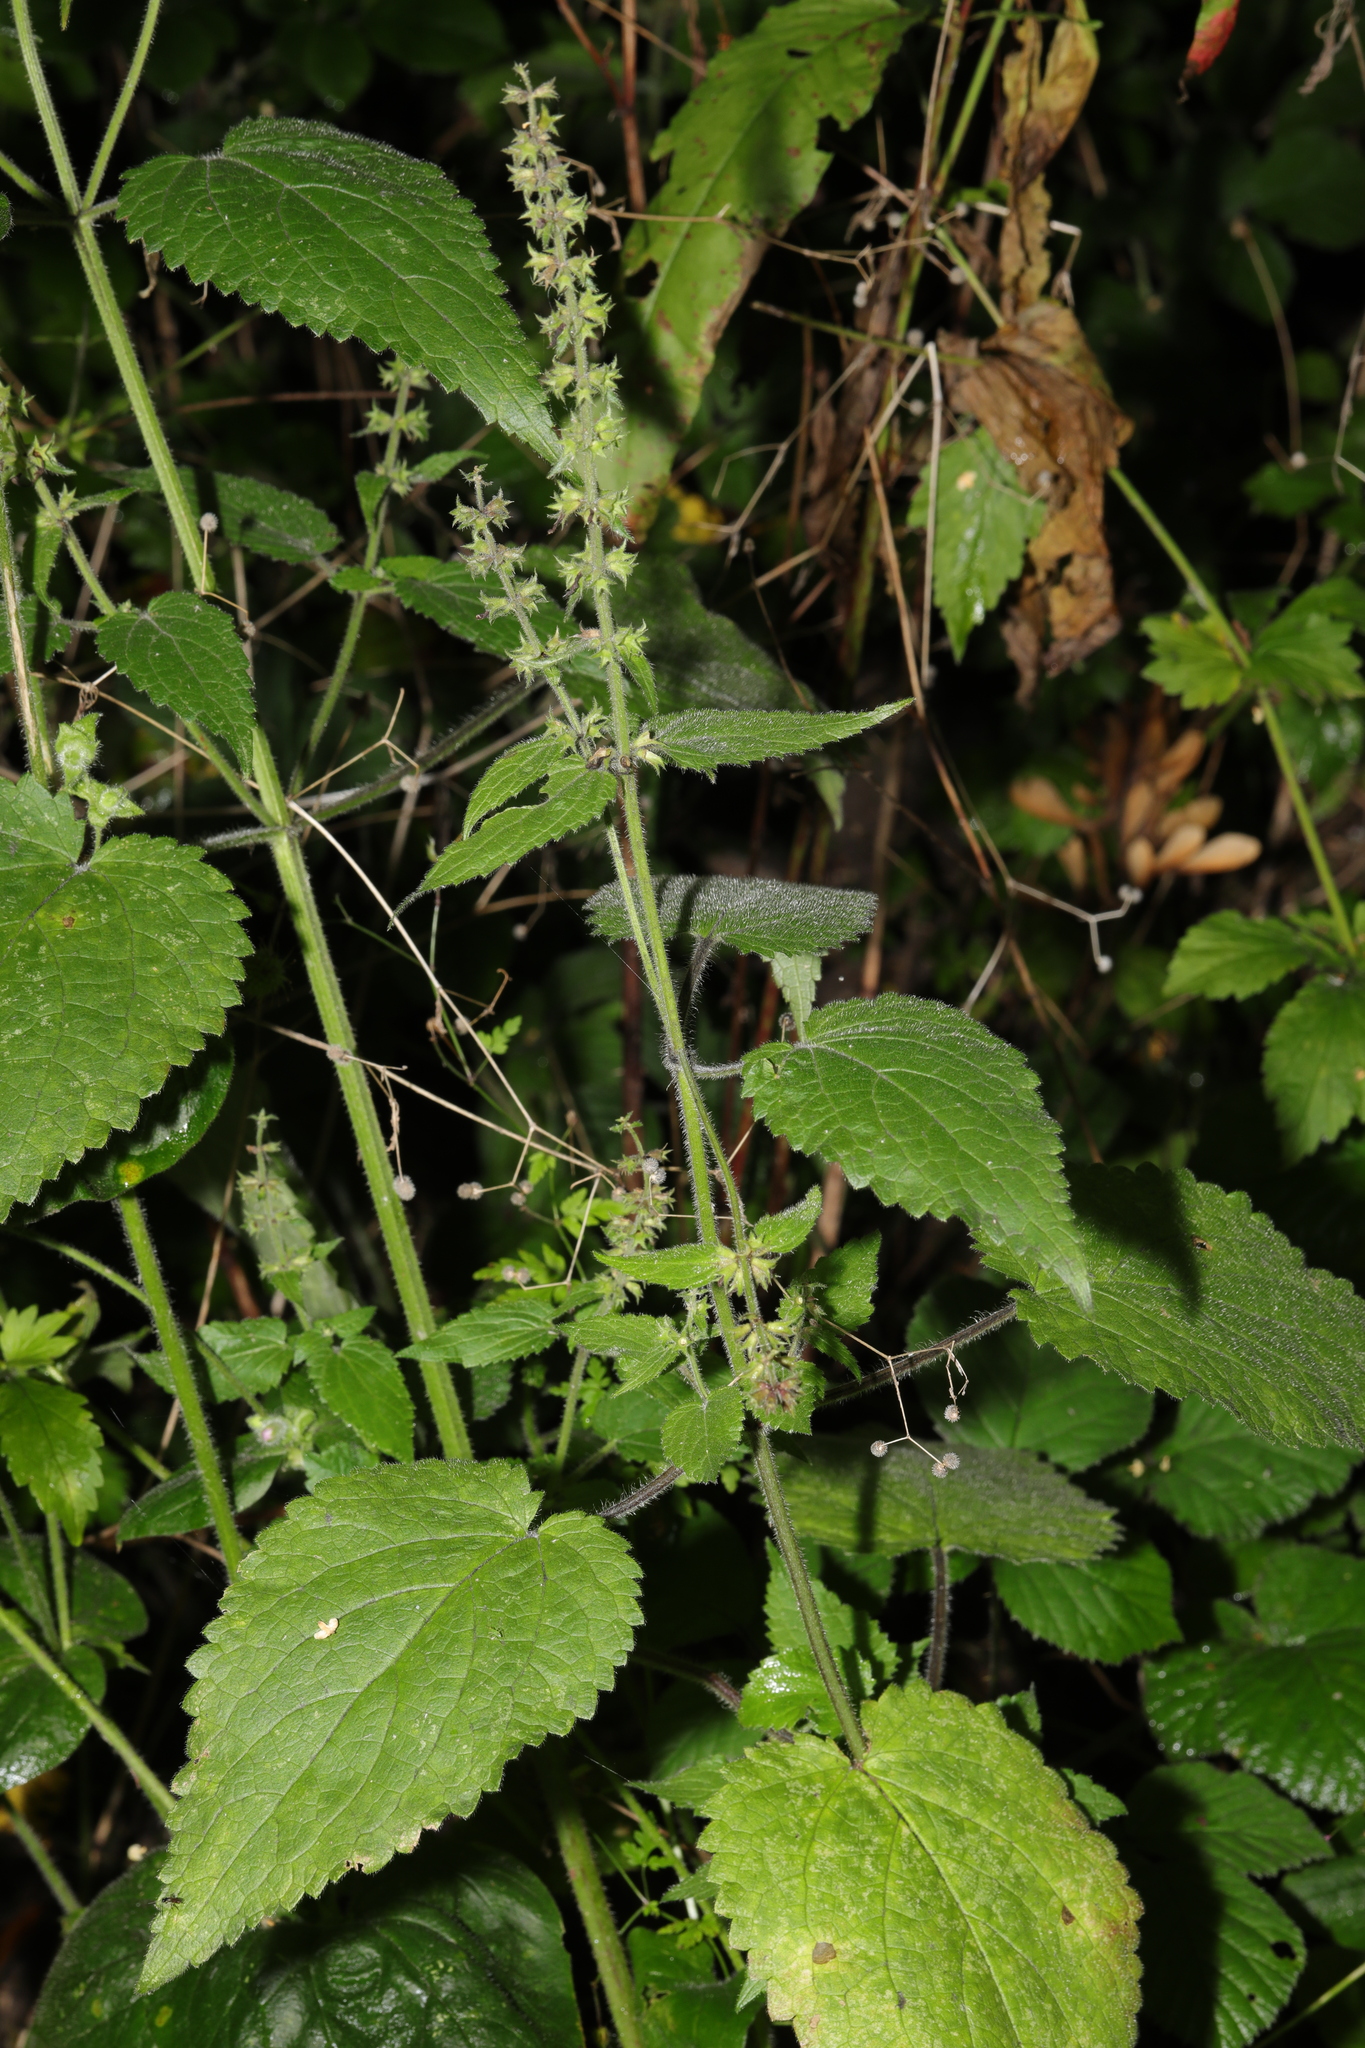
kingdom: Plantae
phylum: Tracheophyta
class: Magnoliopsida
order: Lamiales
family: Lamiaceae
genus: Stachys
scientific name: Stachys sylvatica
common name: Hedge woundwort
